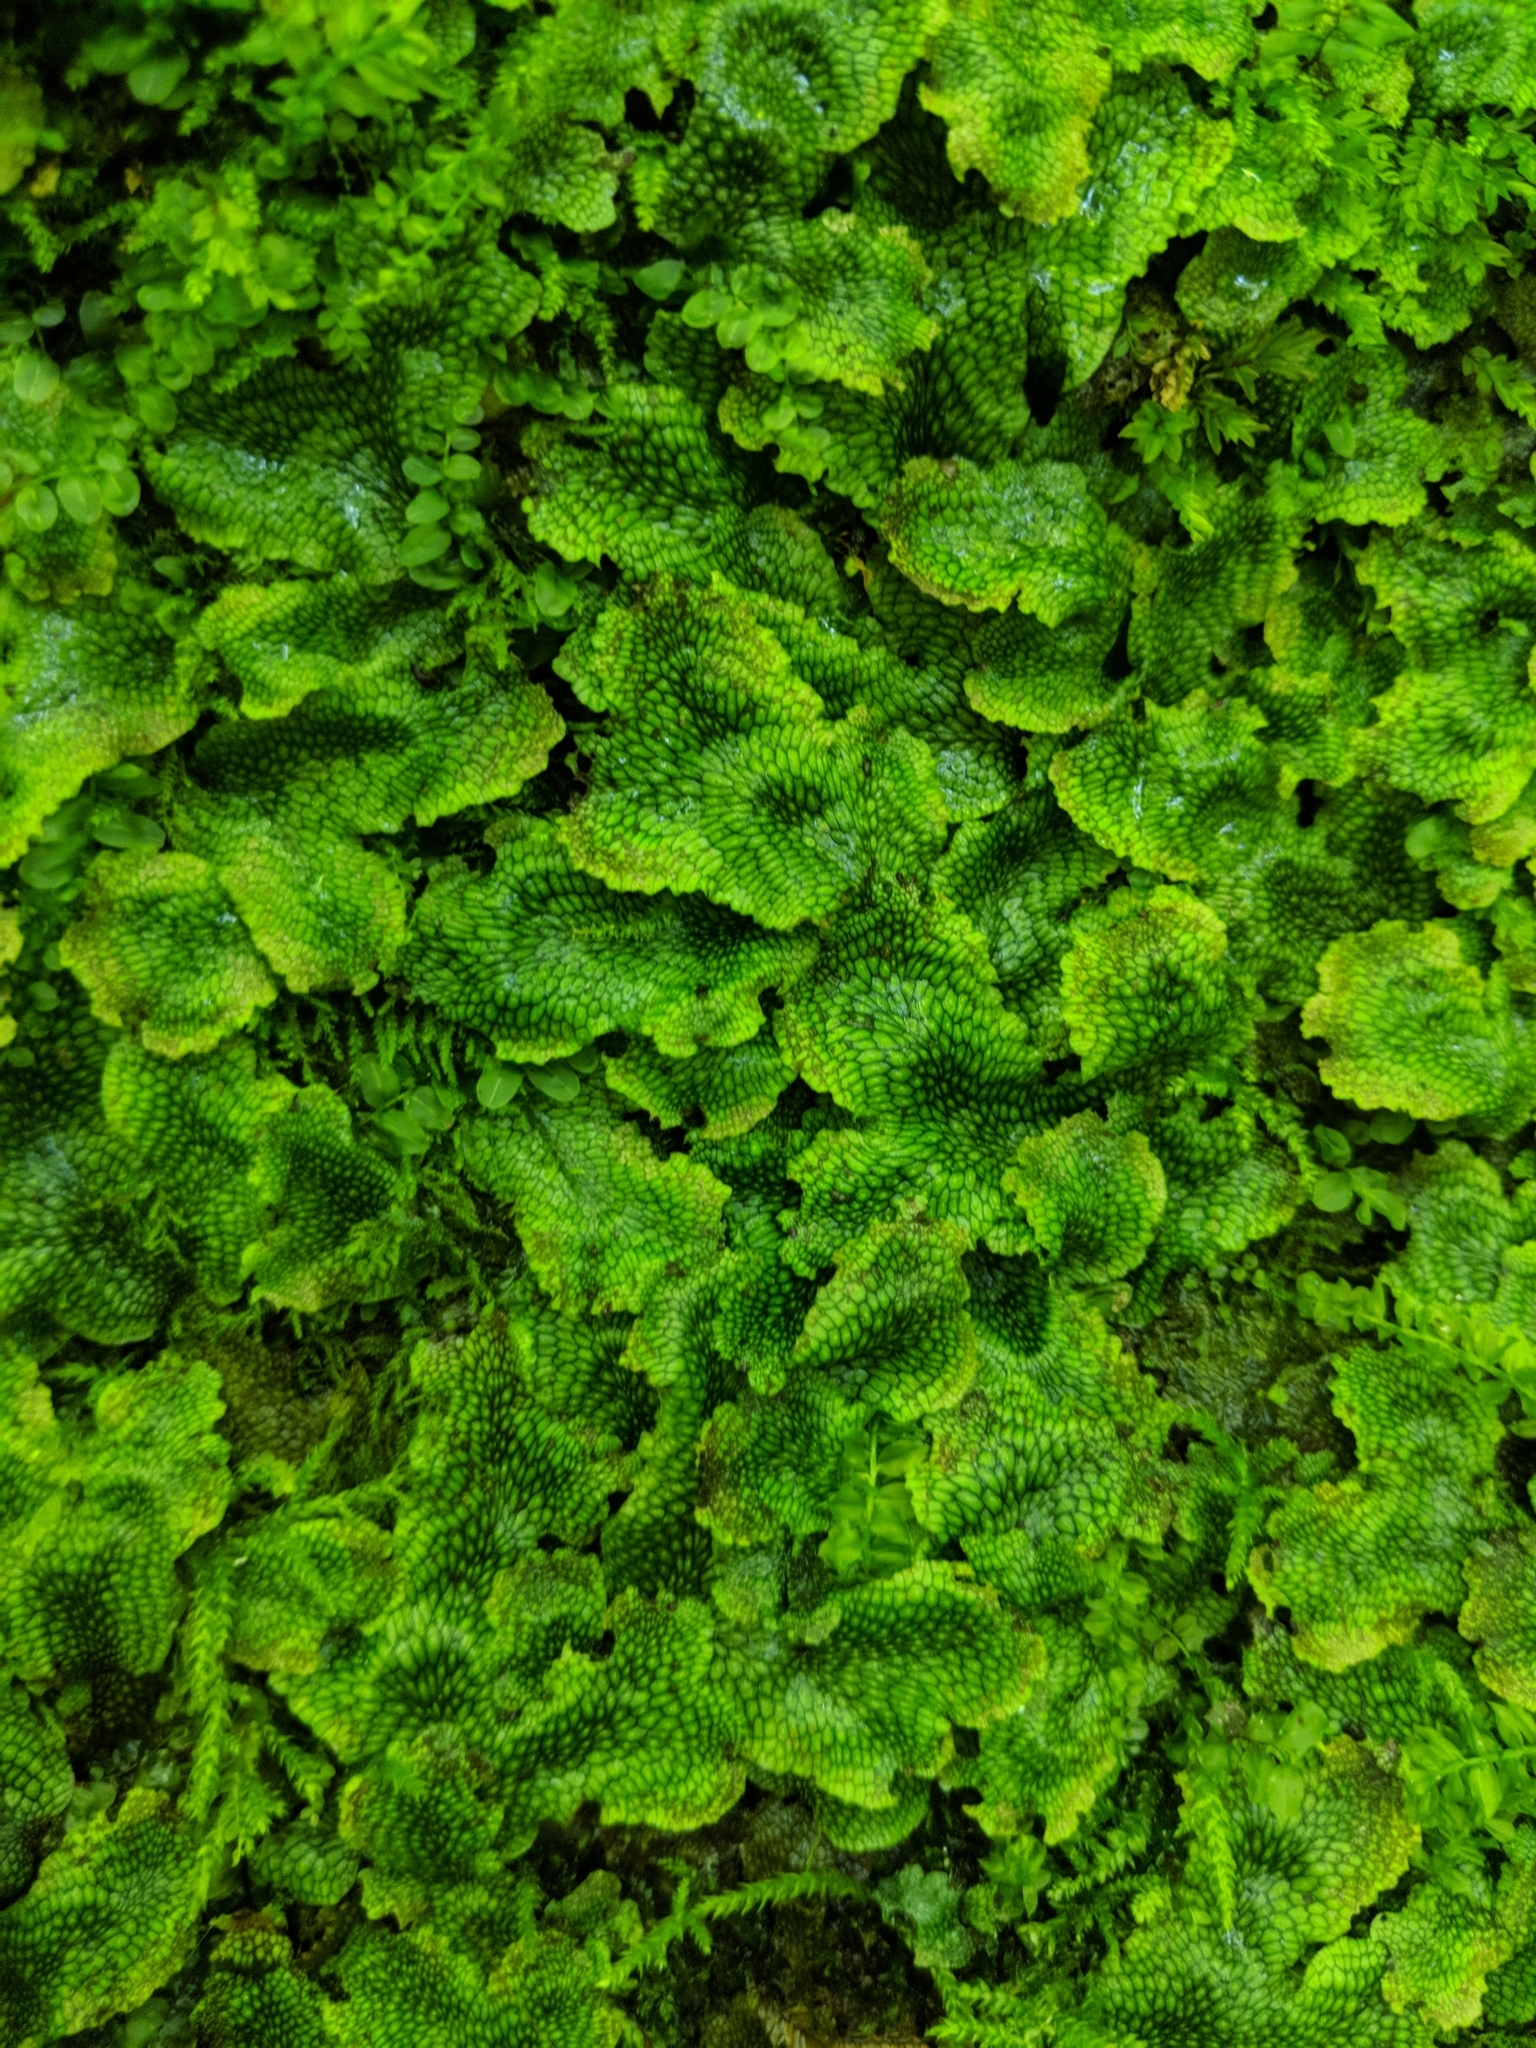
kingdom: Plantae
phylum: Marchantiophyta
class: Marchantiopsida
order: Marchantiales
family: Conocephalaceae
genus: Conocephalum
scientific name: Conocephalum salebrosum
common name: Cat-tongue liverwort
